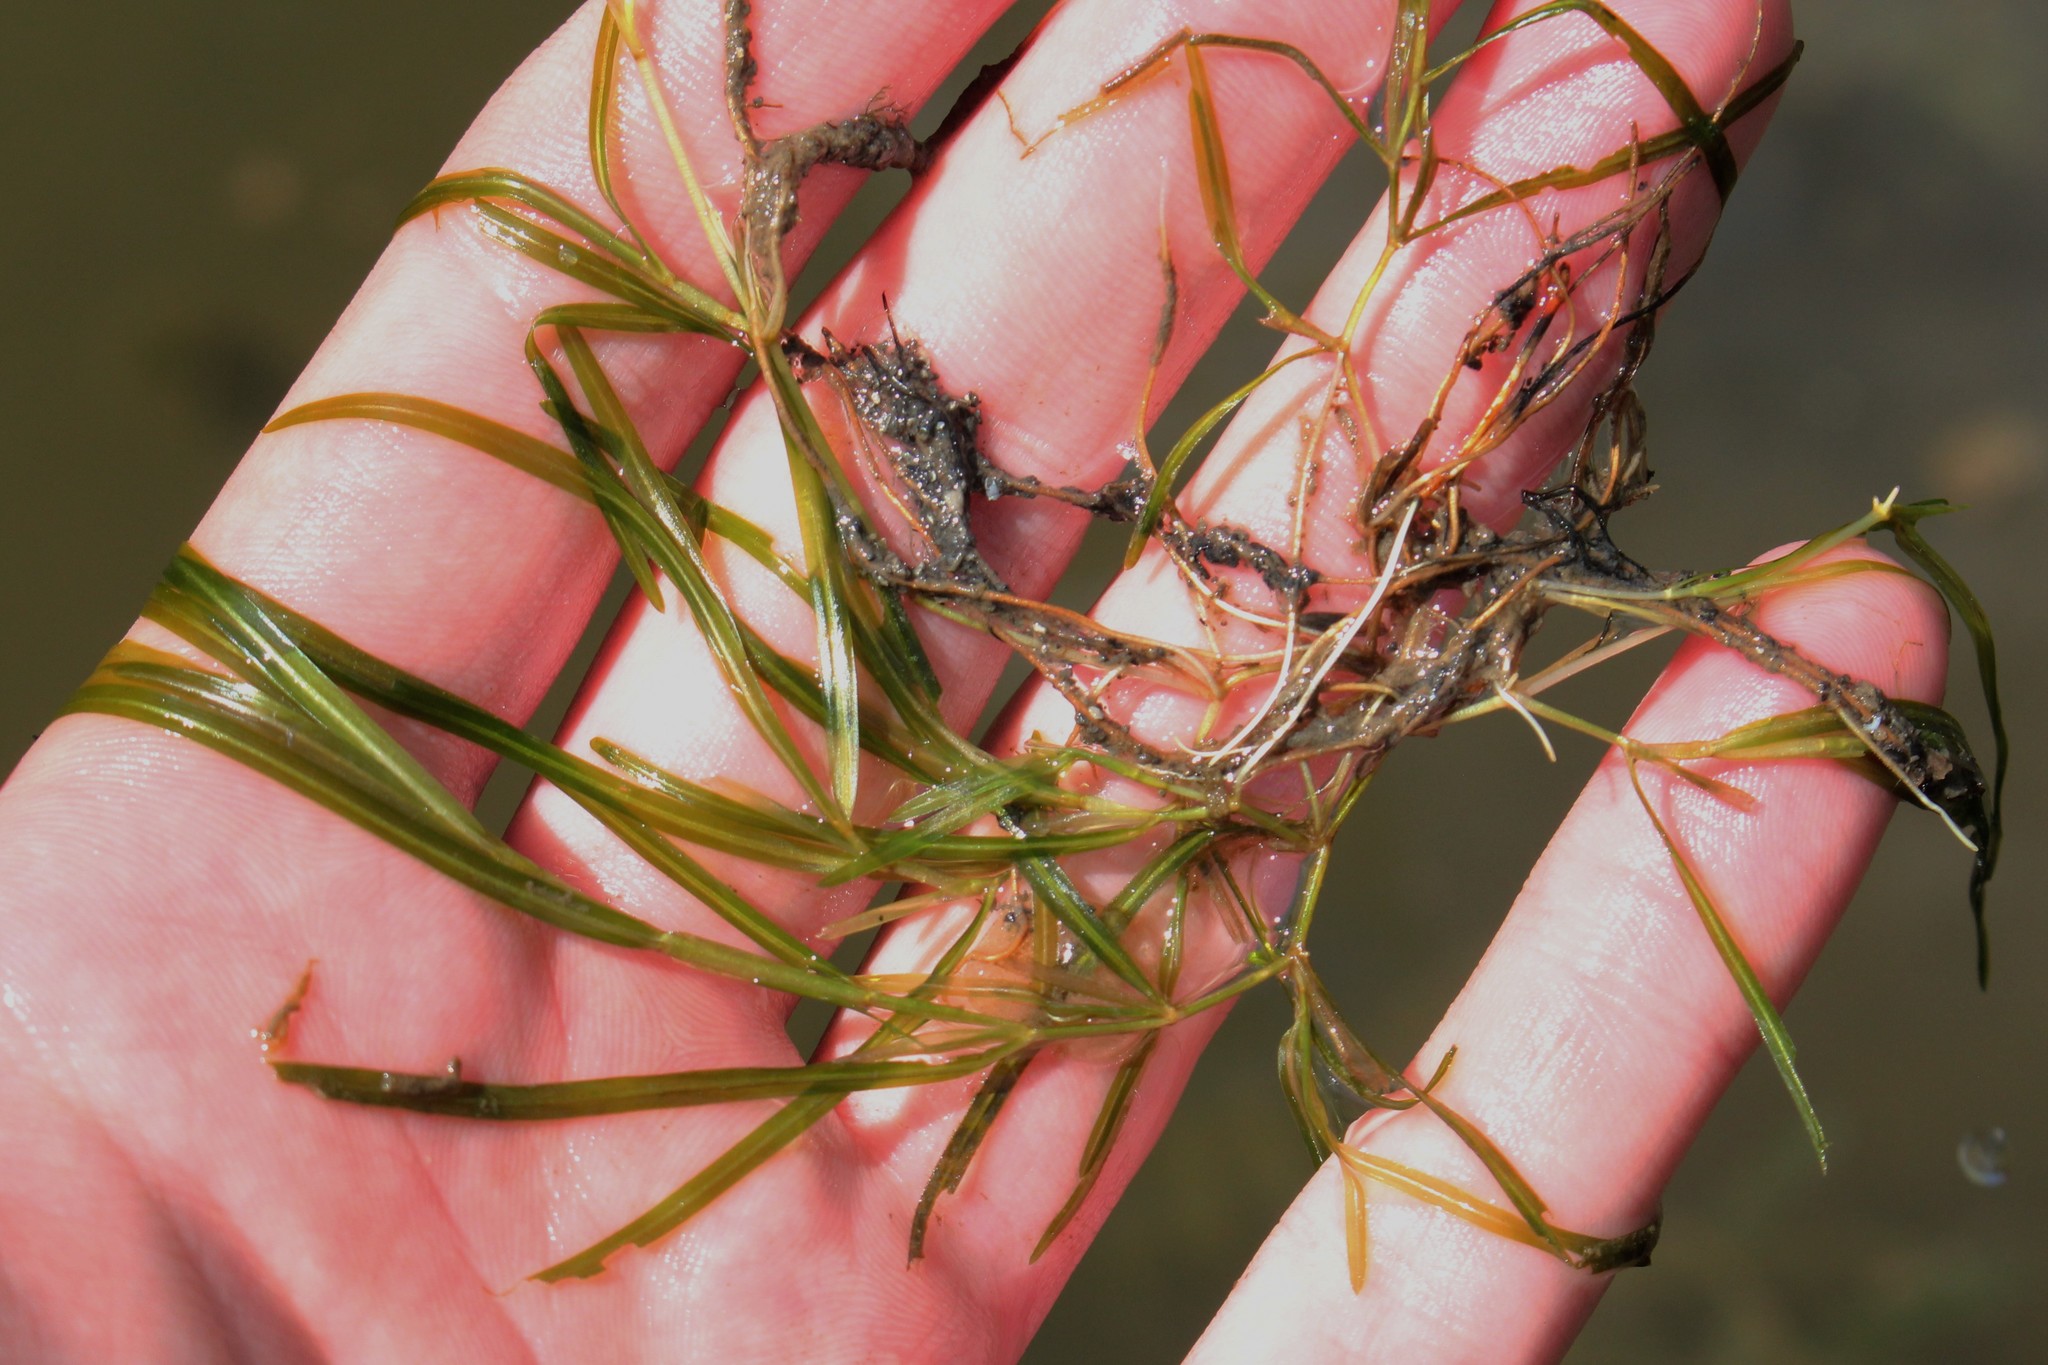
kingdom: Plantae
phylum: Tracheophyta
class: Liliopsida
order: Alismatales
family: Potamogetonaceae
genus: Potamogeton
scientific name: Potamogeton pusillus
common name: Lesser pondweed
